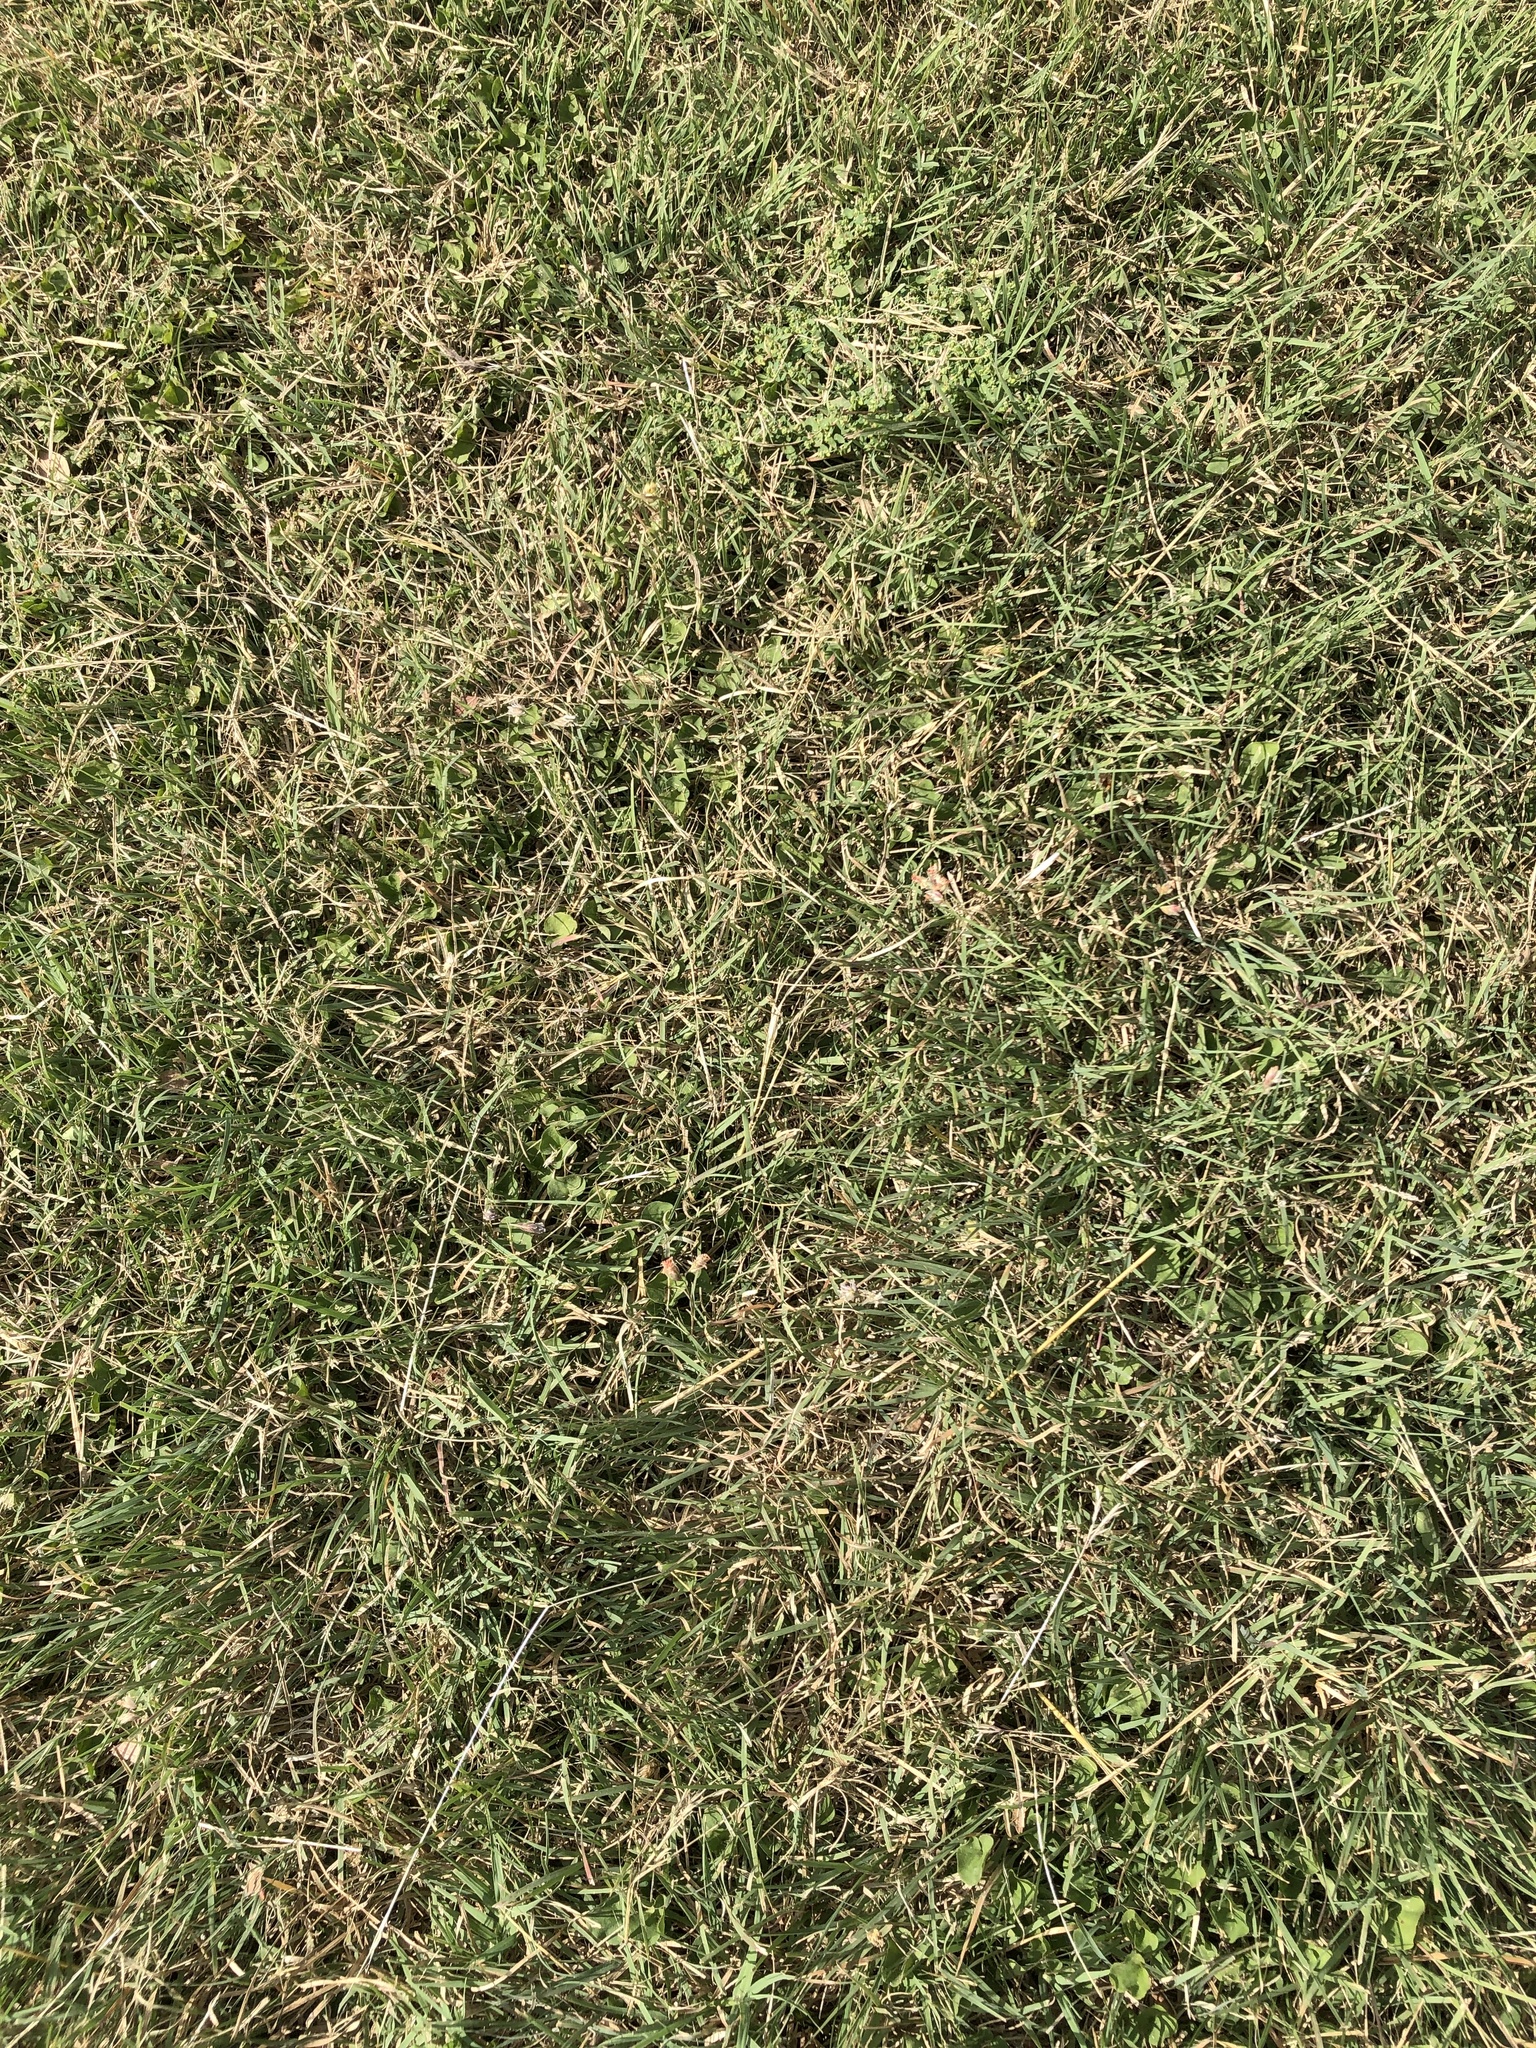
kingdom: Plantae
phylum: Tracheophyta
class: Liliopsida
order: Poales
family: Poaceae
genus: Bouteloua
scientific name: Bouteloua dactyloides
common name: Buffalo grass
